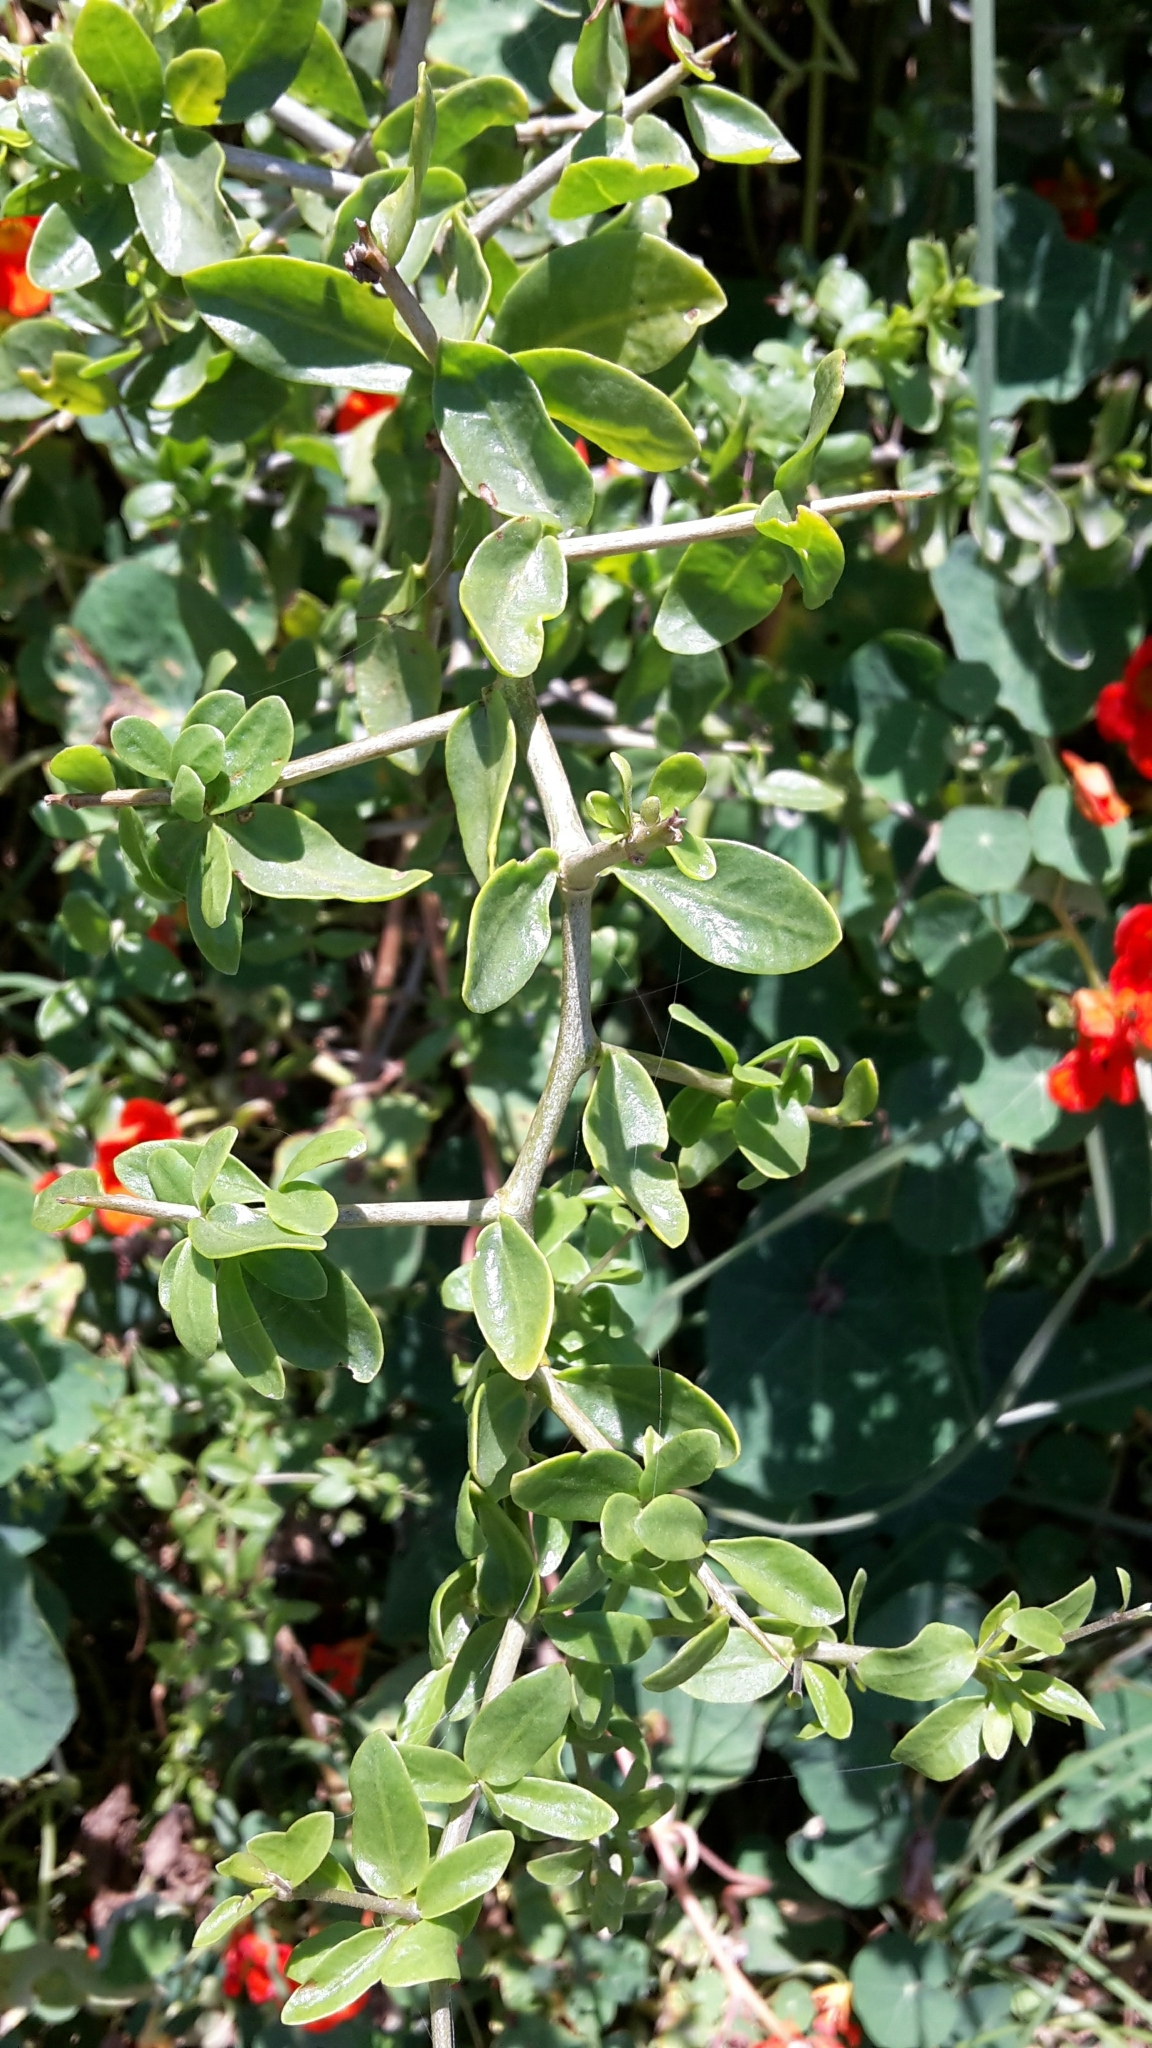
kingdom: Plantae
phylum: Tracheophyta
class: Magnoliopsida
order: Solanales
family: Solanaceae
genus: Lycium
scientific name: Lycium ferocissimum
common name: African boxthorn
